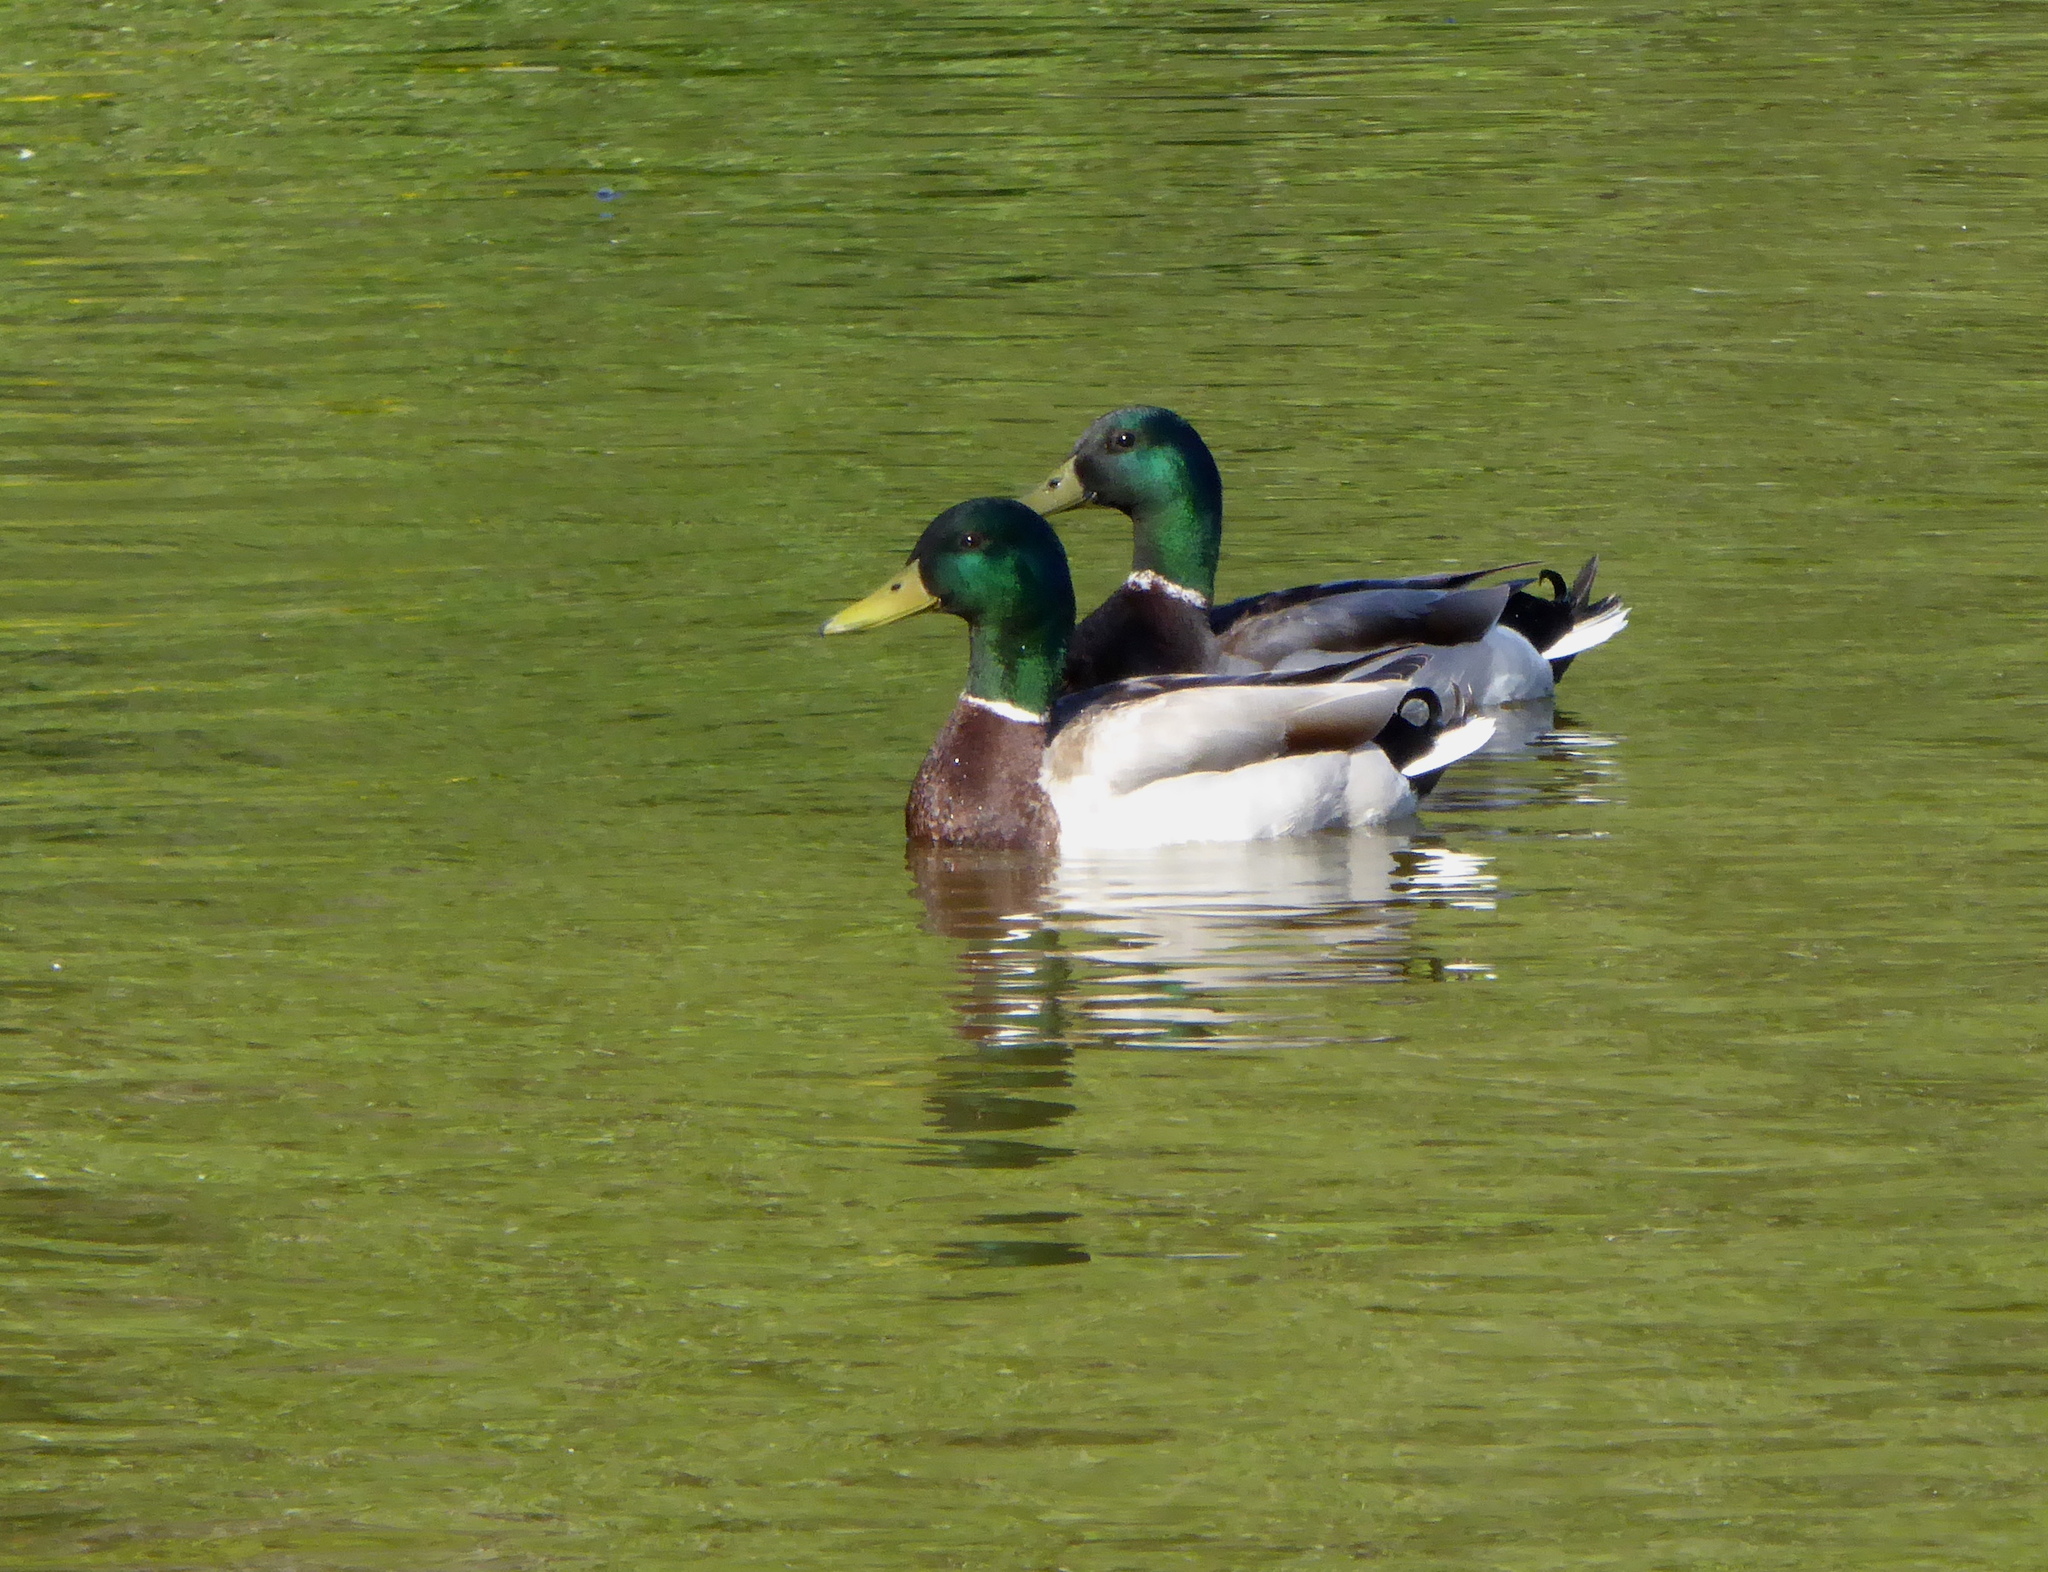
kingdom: Animalia
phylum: Chordata
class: Aves
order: Anseriformes
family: Anatidae
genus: Anas
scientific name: Anas platyrhynchos
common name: Mallard
